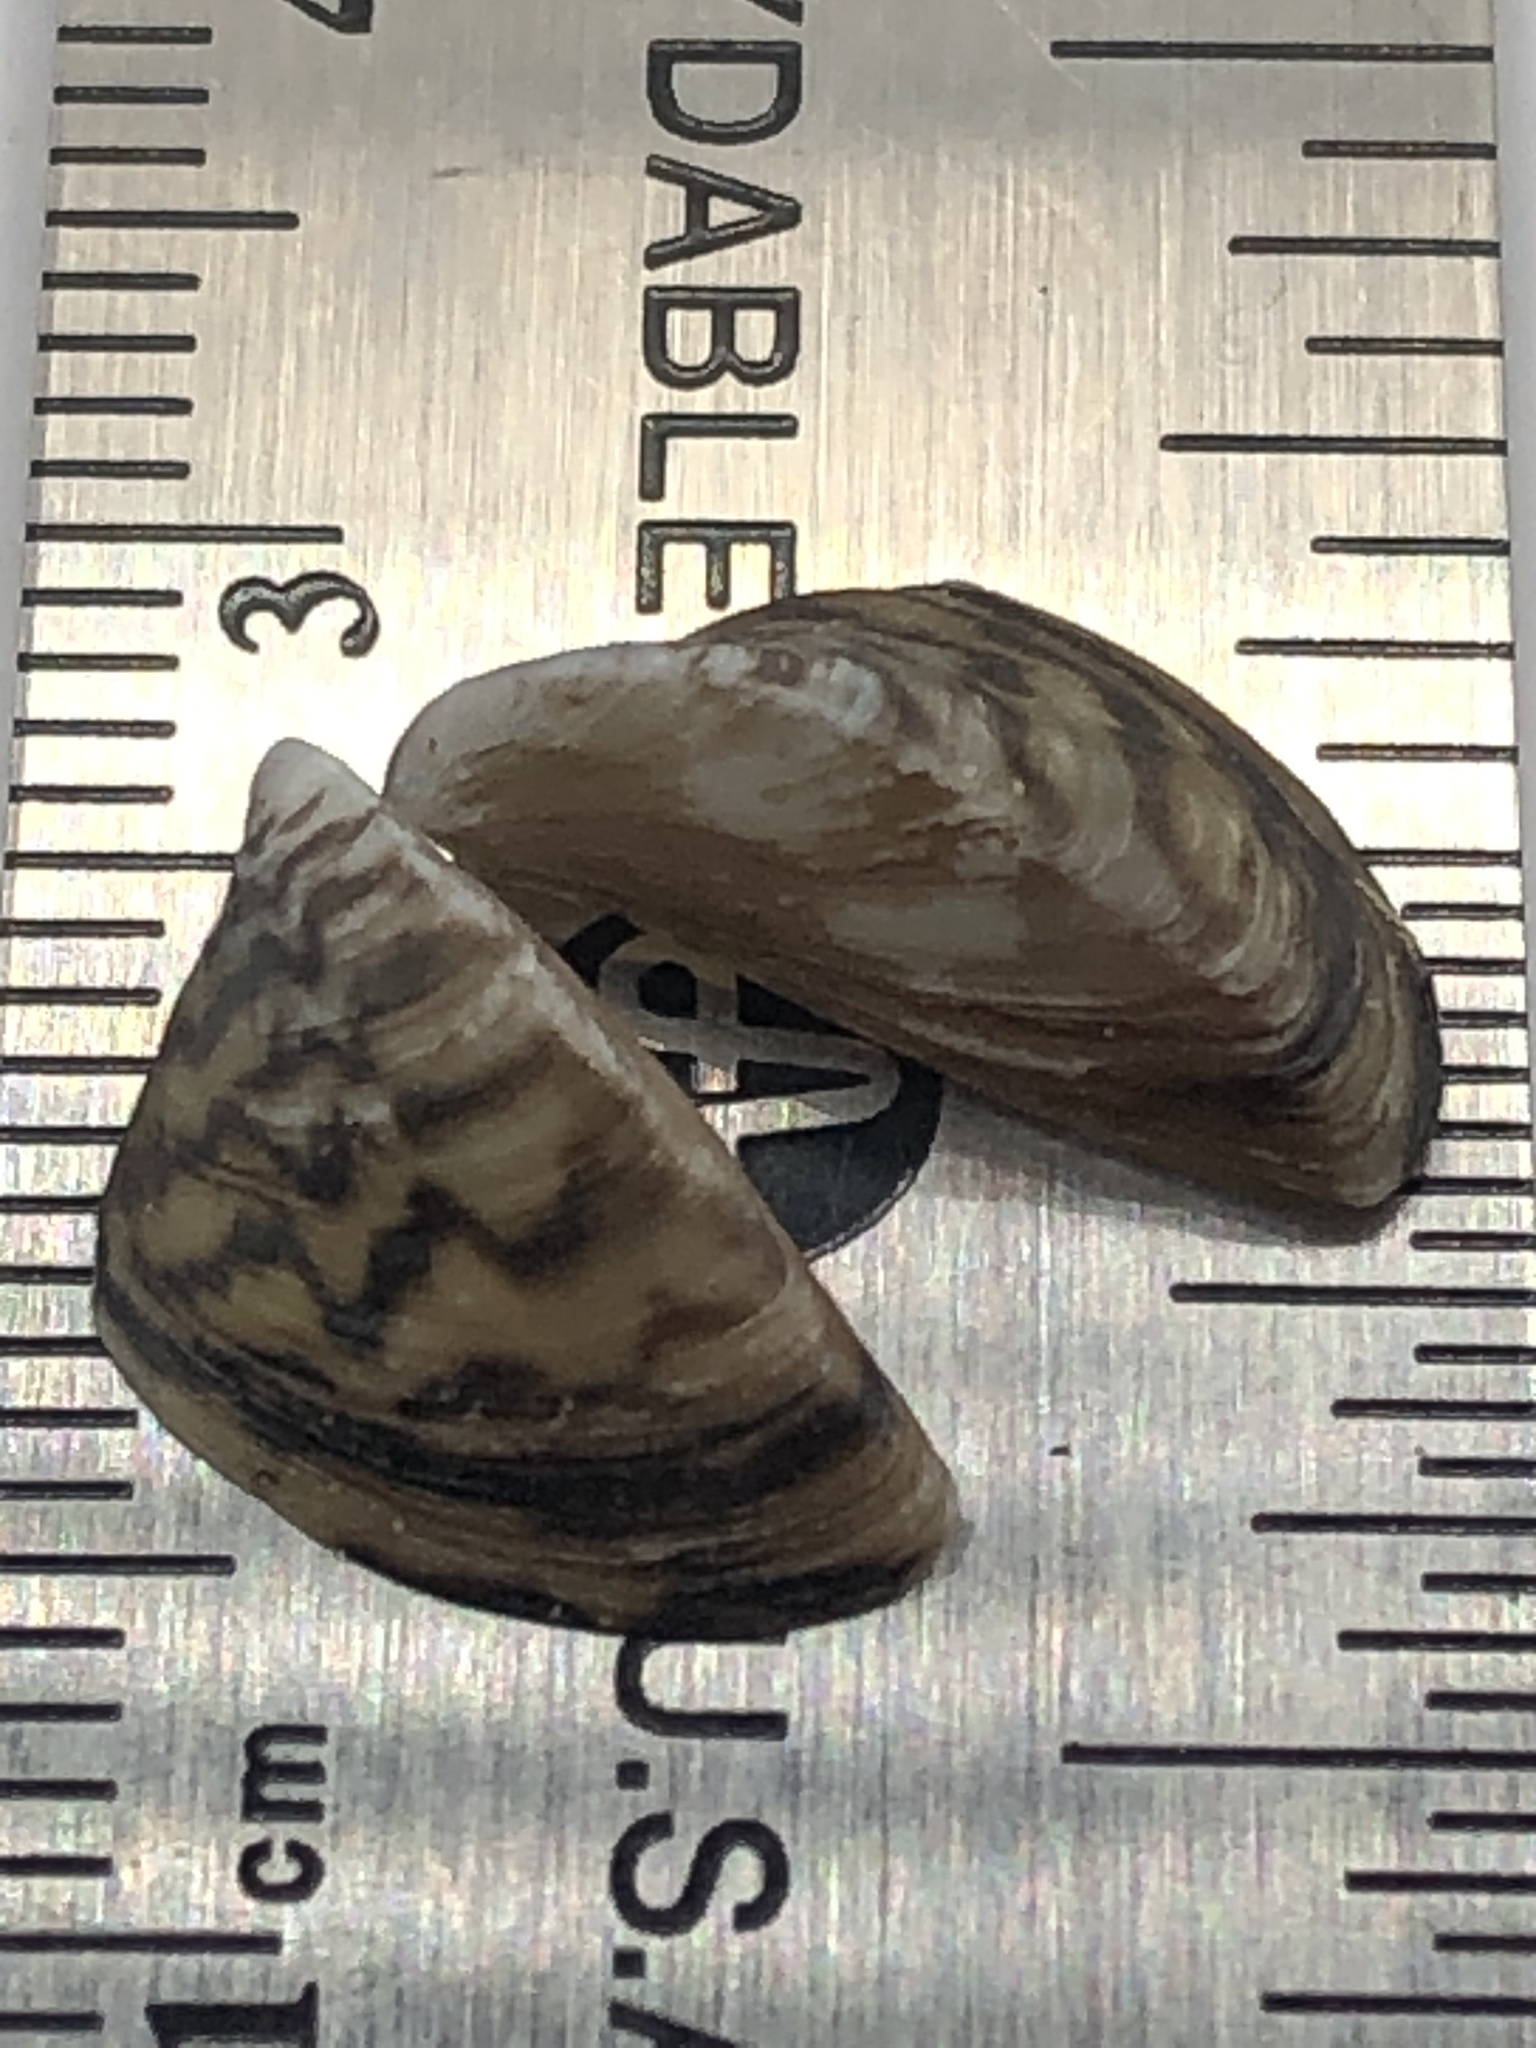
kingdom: Animalia
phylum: Mollusca
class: Bivalvia
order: Myida
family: Dreissenidae
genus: Dreissena
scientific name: Dreissena polymorpha
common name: Zebra mussel
